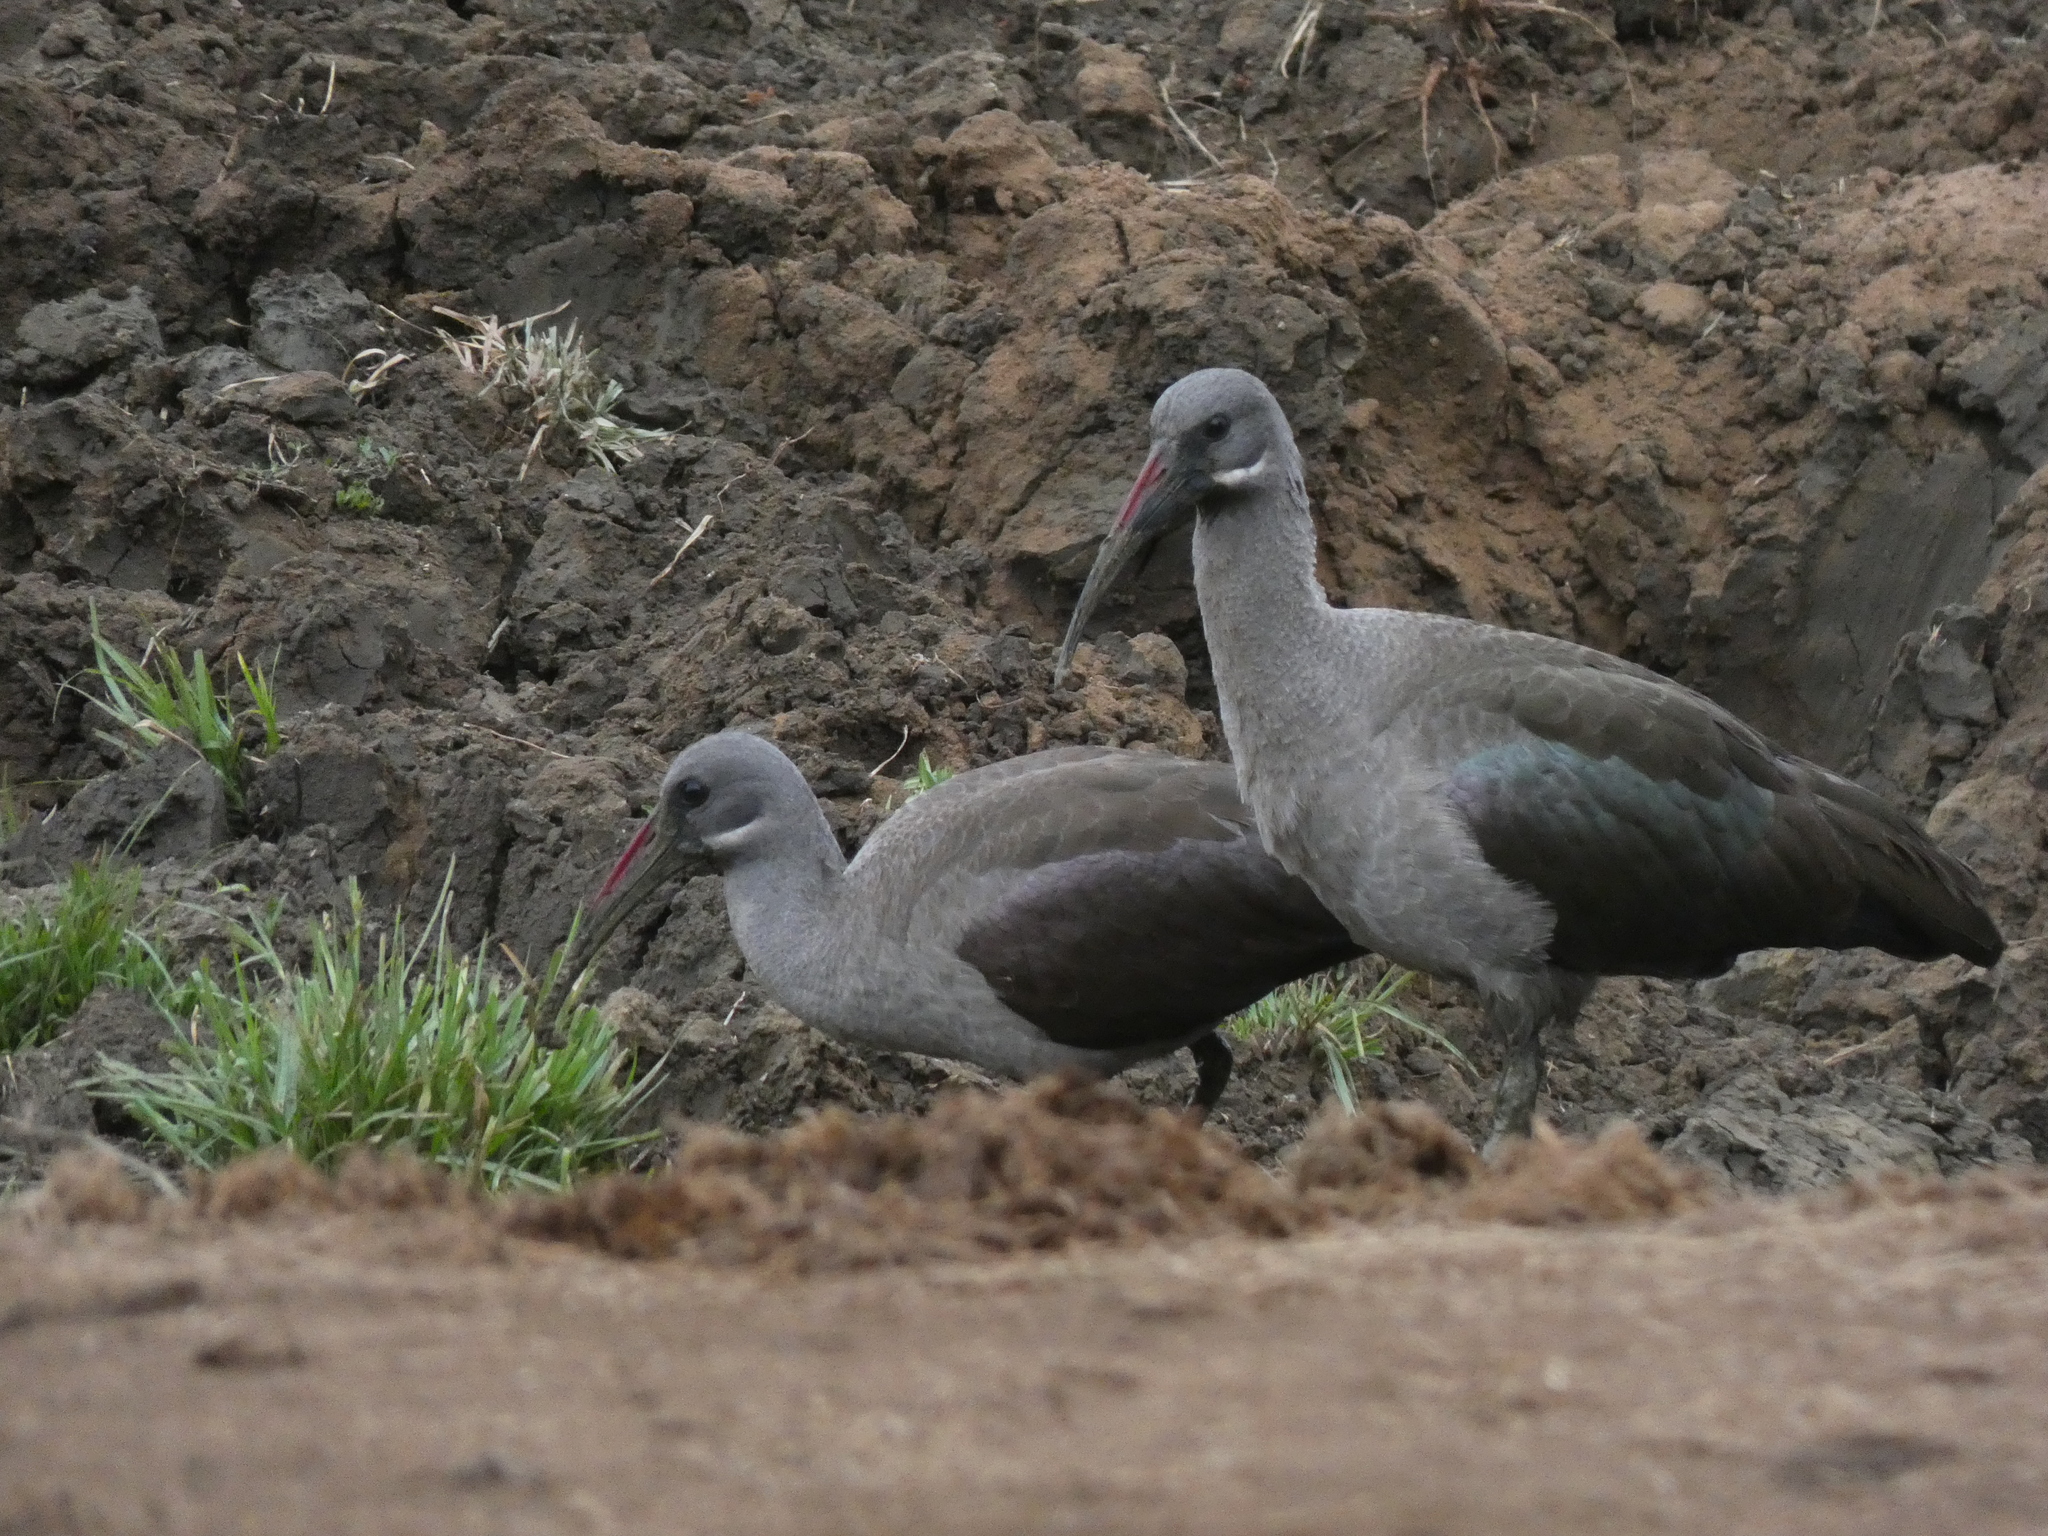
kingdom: Animalia
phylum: Chordata
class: Aves
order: Pelecaniformes
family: Threskiornithidae
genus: Bostrychia
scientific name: Bostrychia hagedash
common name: Hadada ibis
